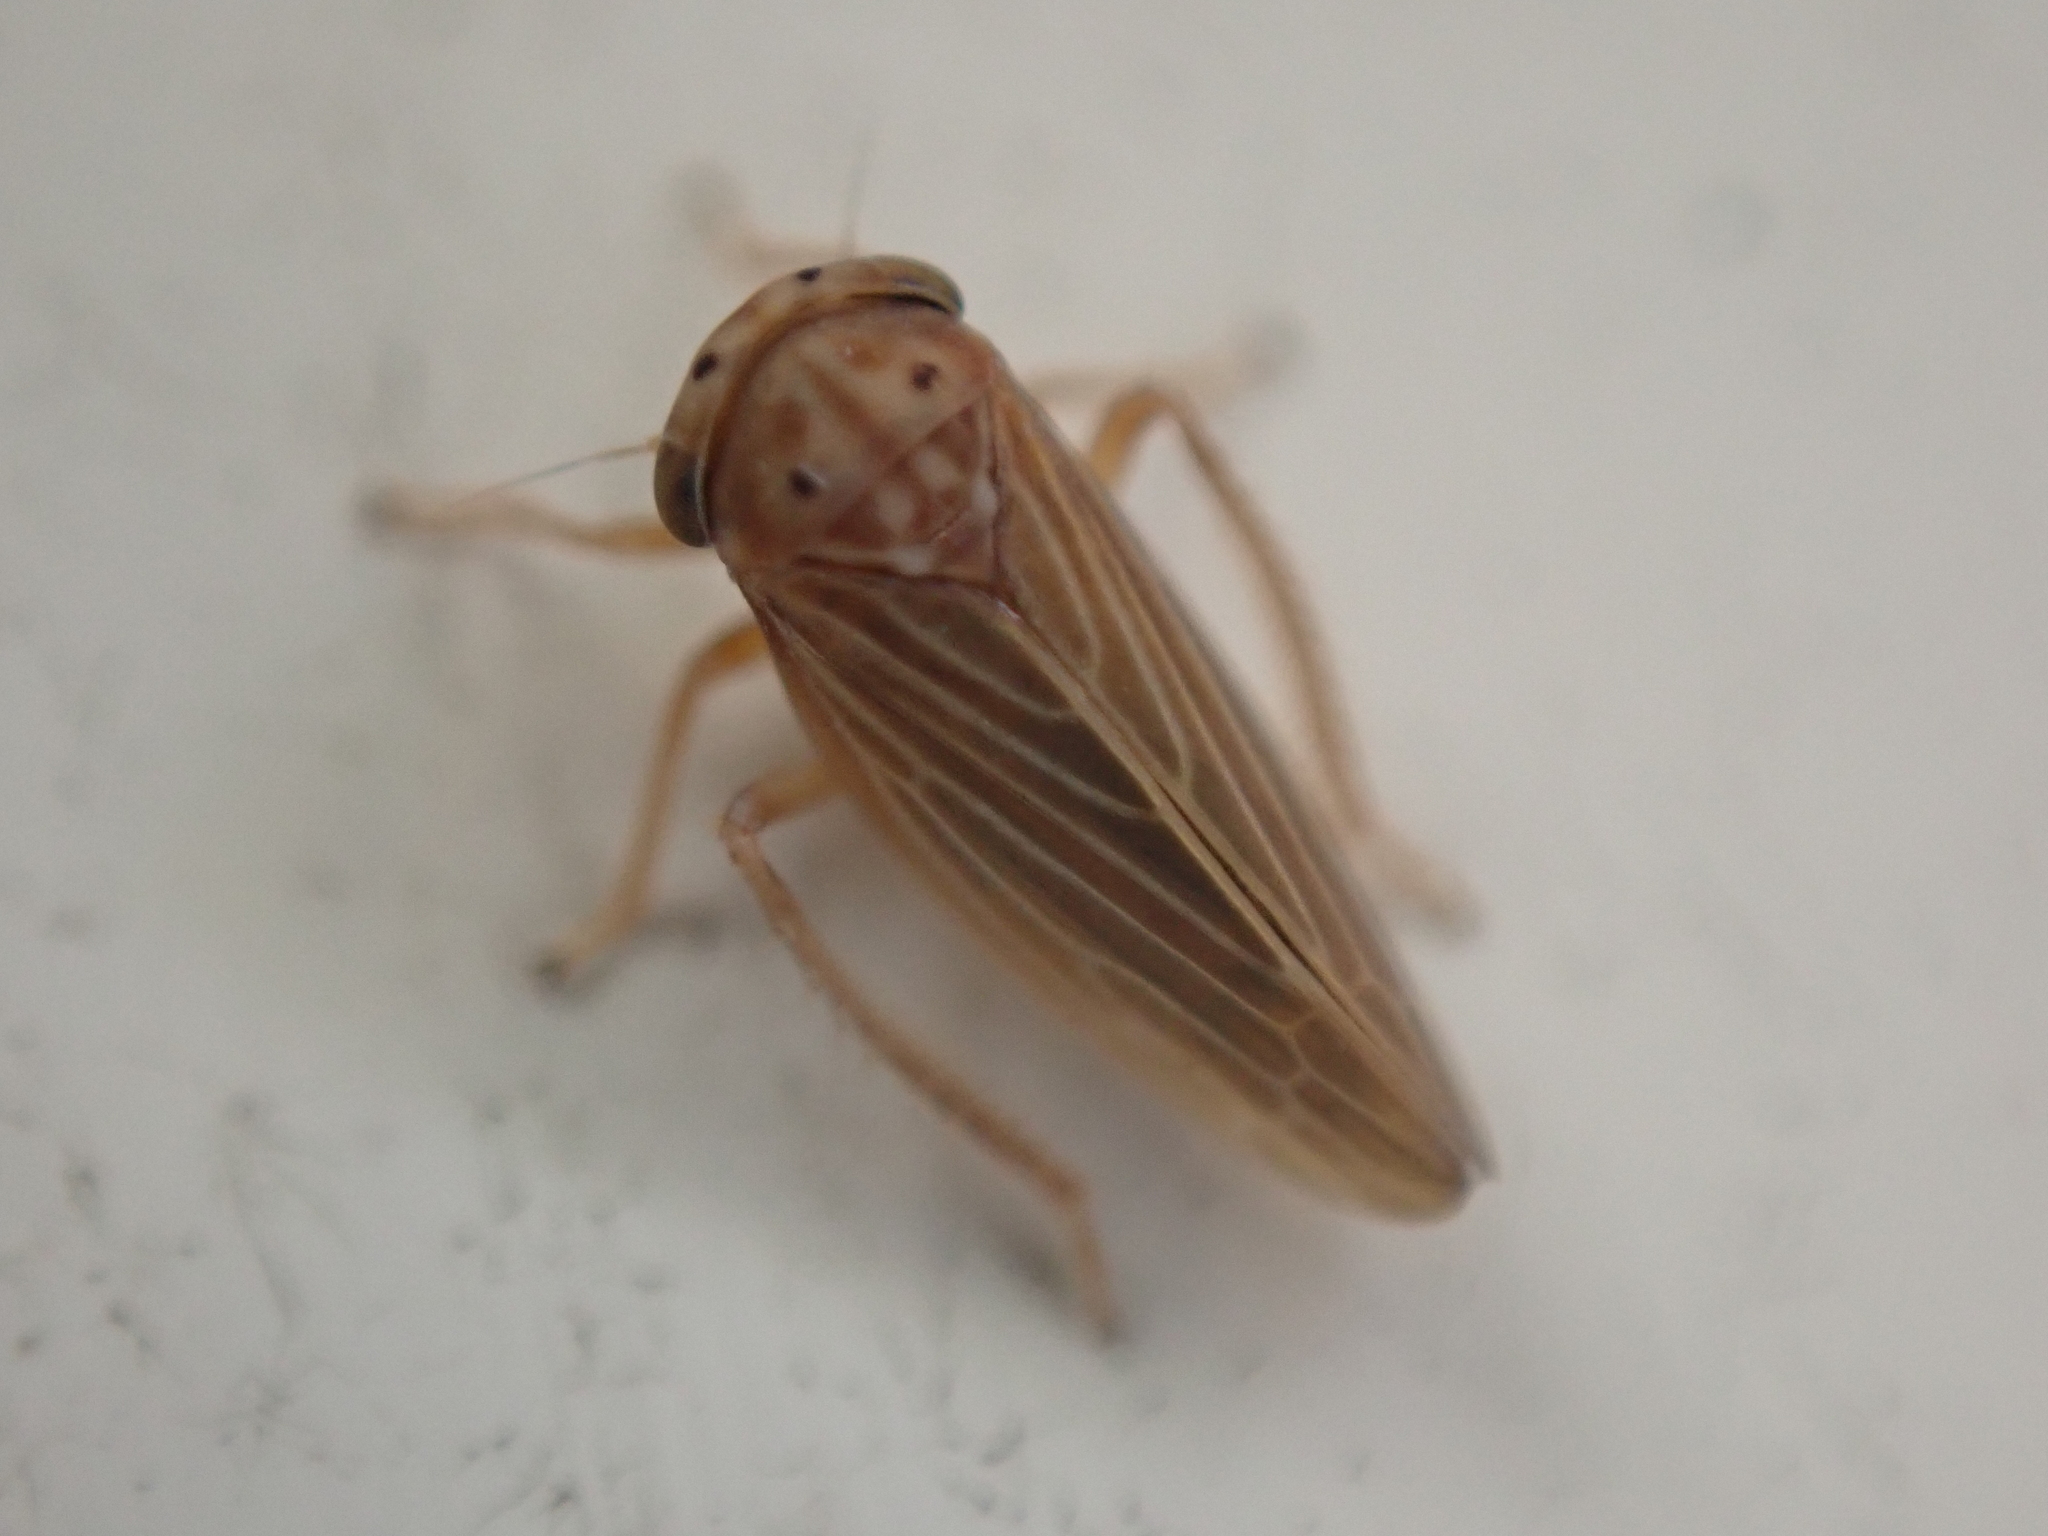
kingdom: Animalia
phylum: Arthropoda
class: Insecta
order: Hemiptera
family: Cicadellidae
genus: Agallia
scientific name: Agallia constricta
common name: The constricted leafhopper
